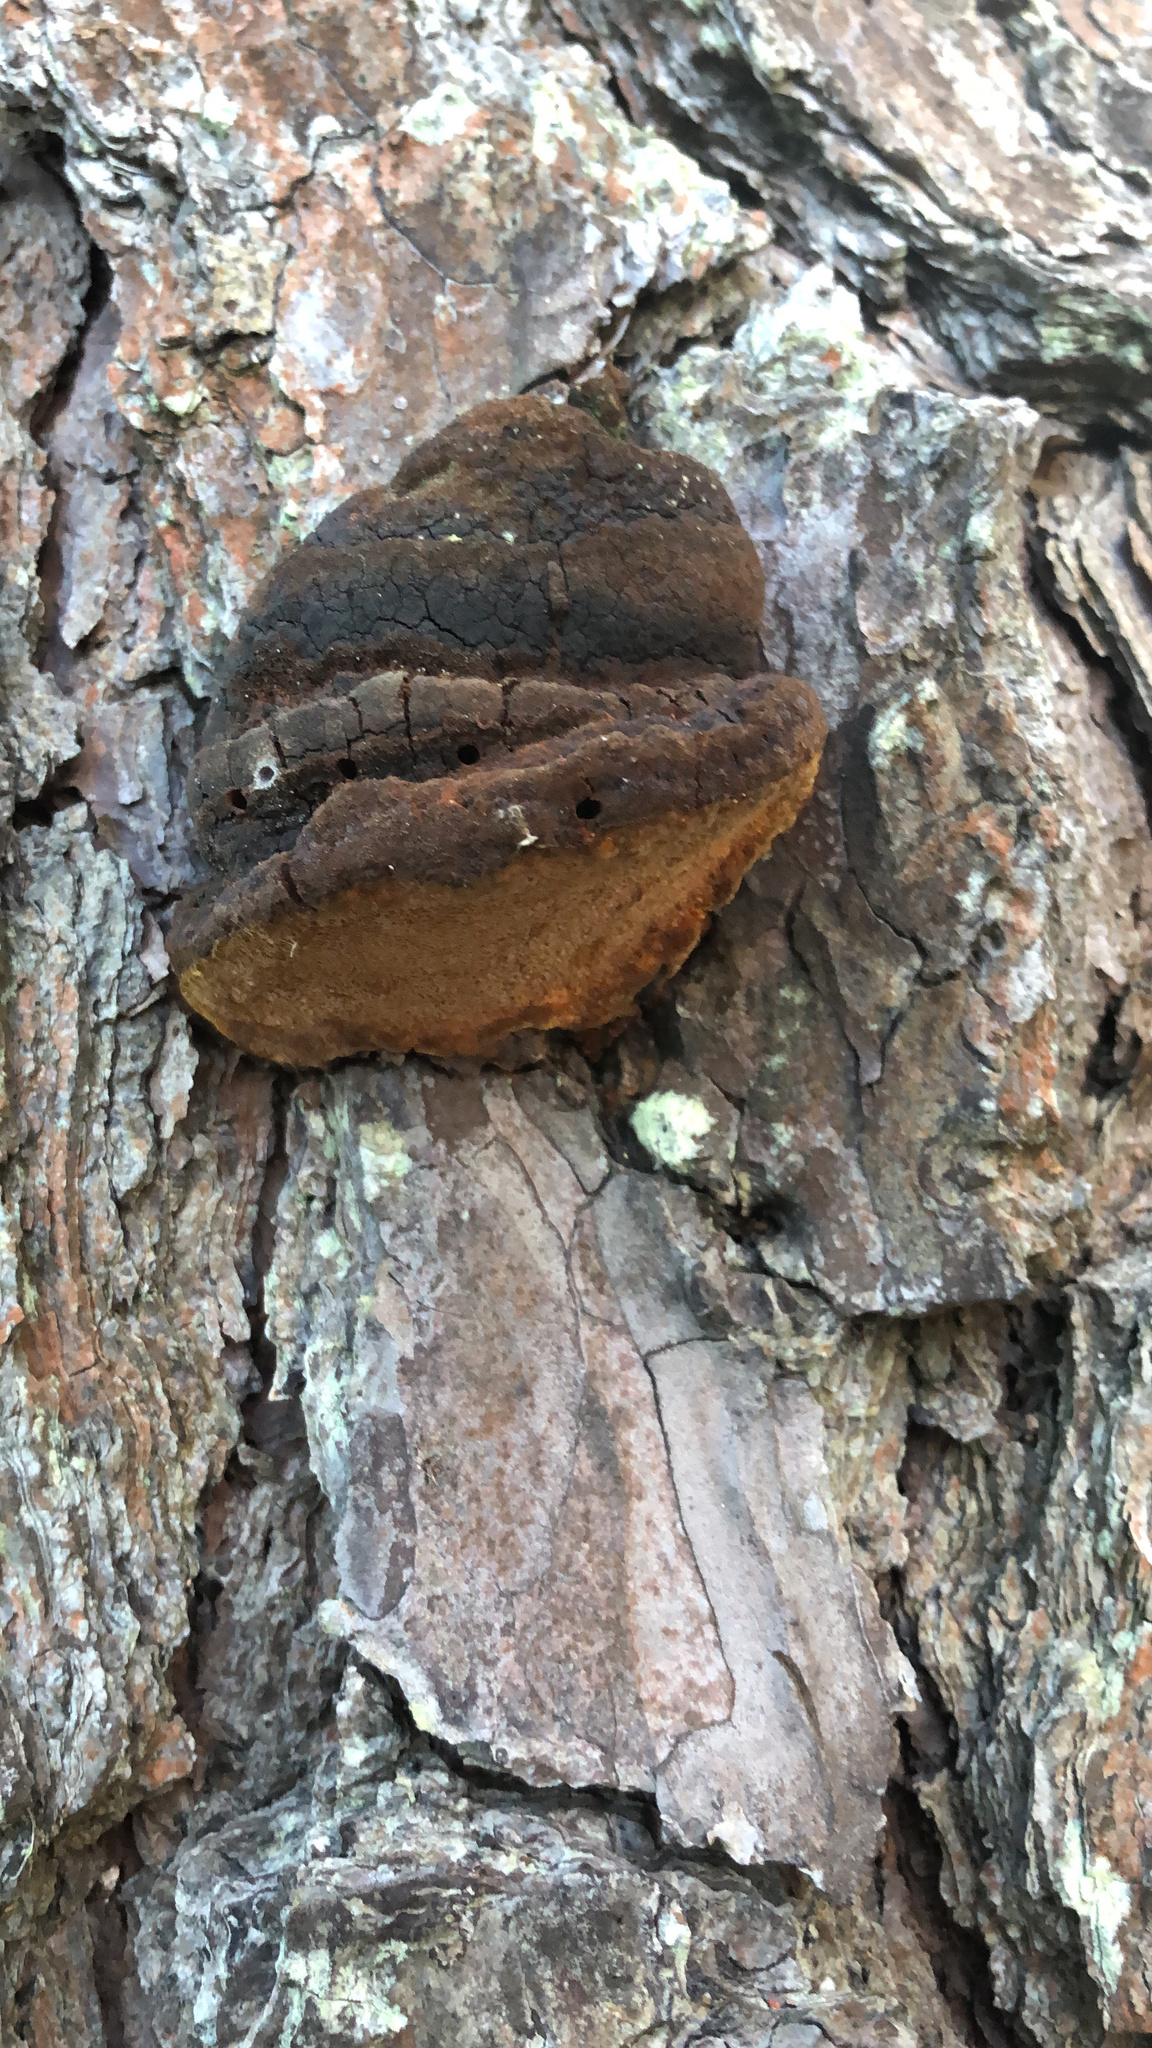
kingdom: Fungi
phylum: Basidiomycota
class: Agaricomycetes
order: Hymenochaetales
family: Hymenochaetaceae
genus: Porodaedalea
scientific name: Porodaedalea pini
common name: Pine bracket
